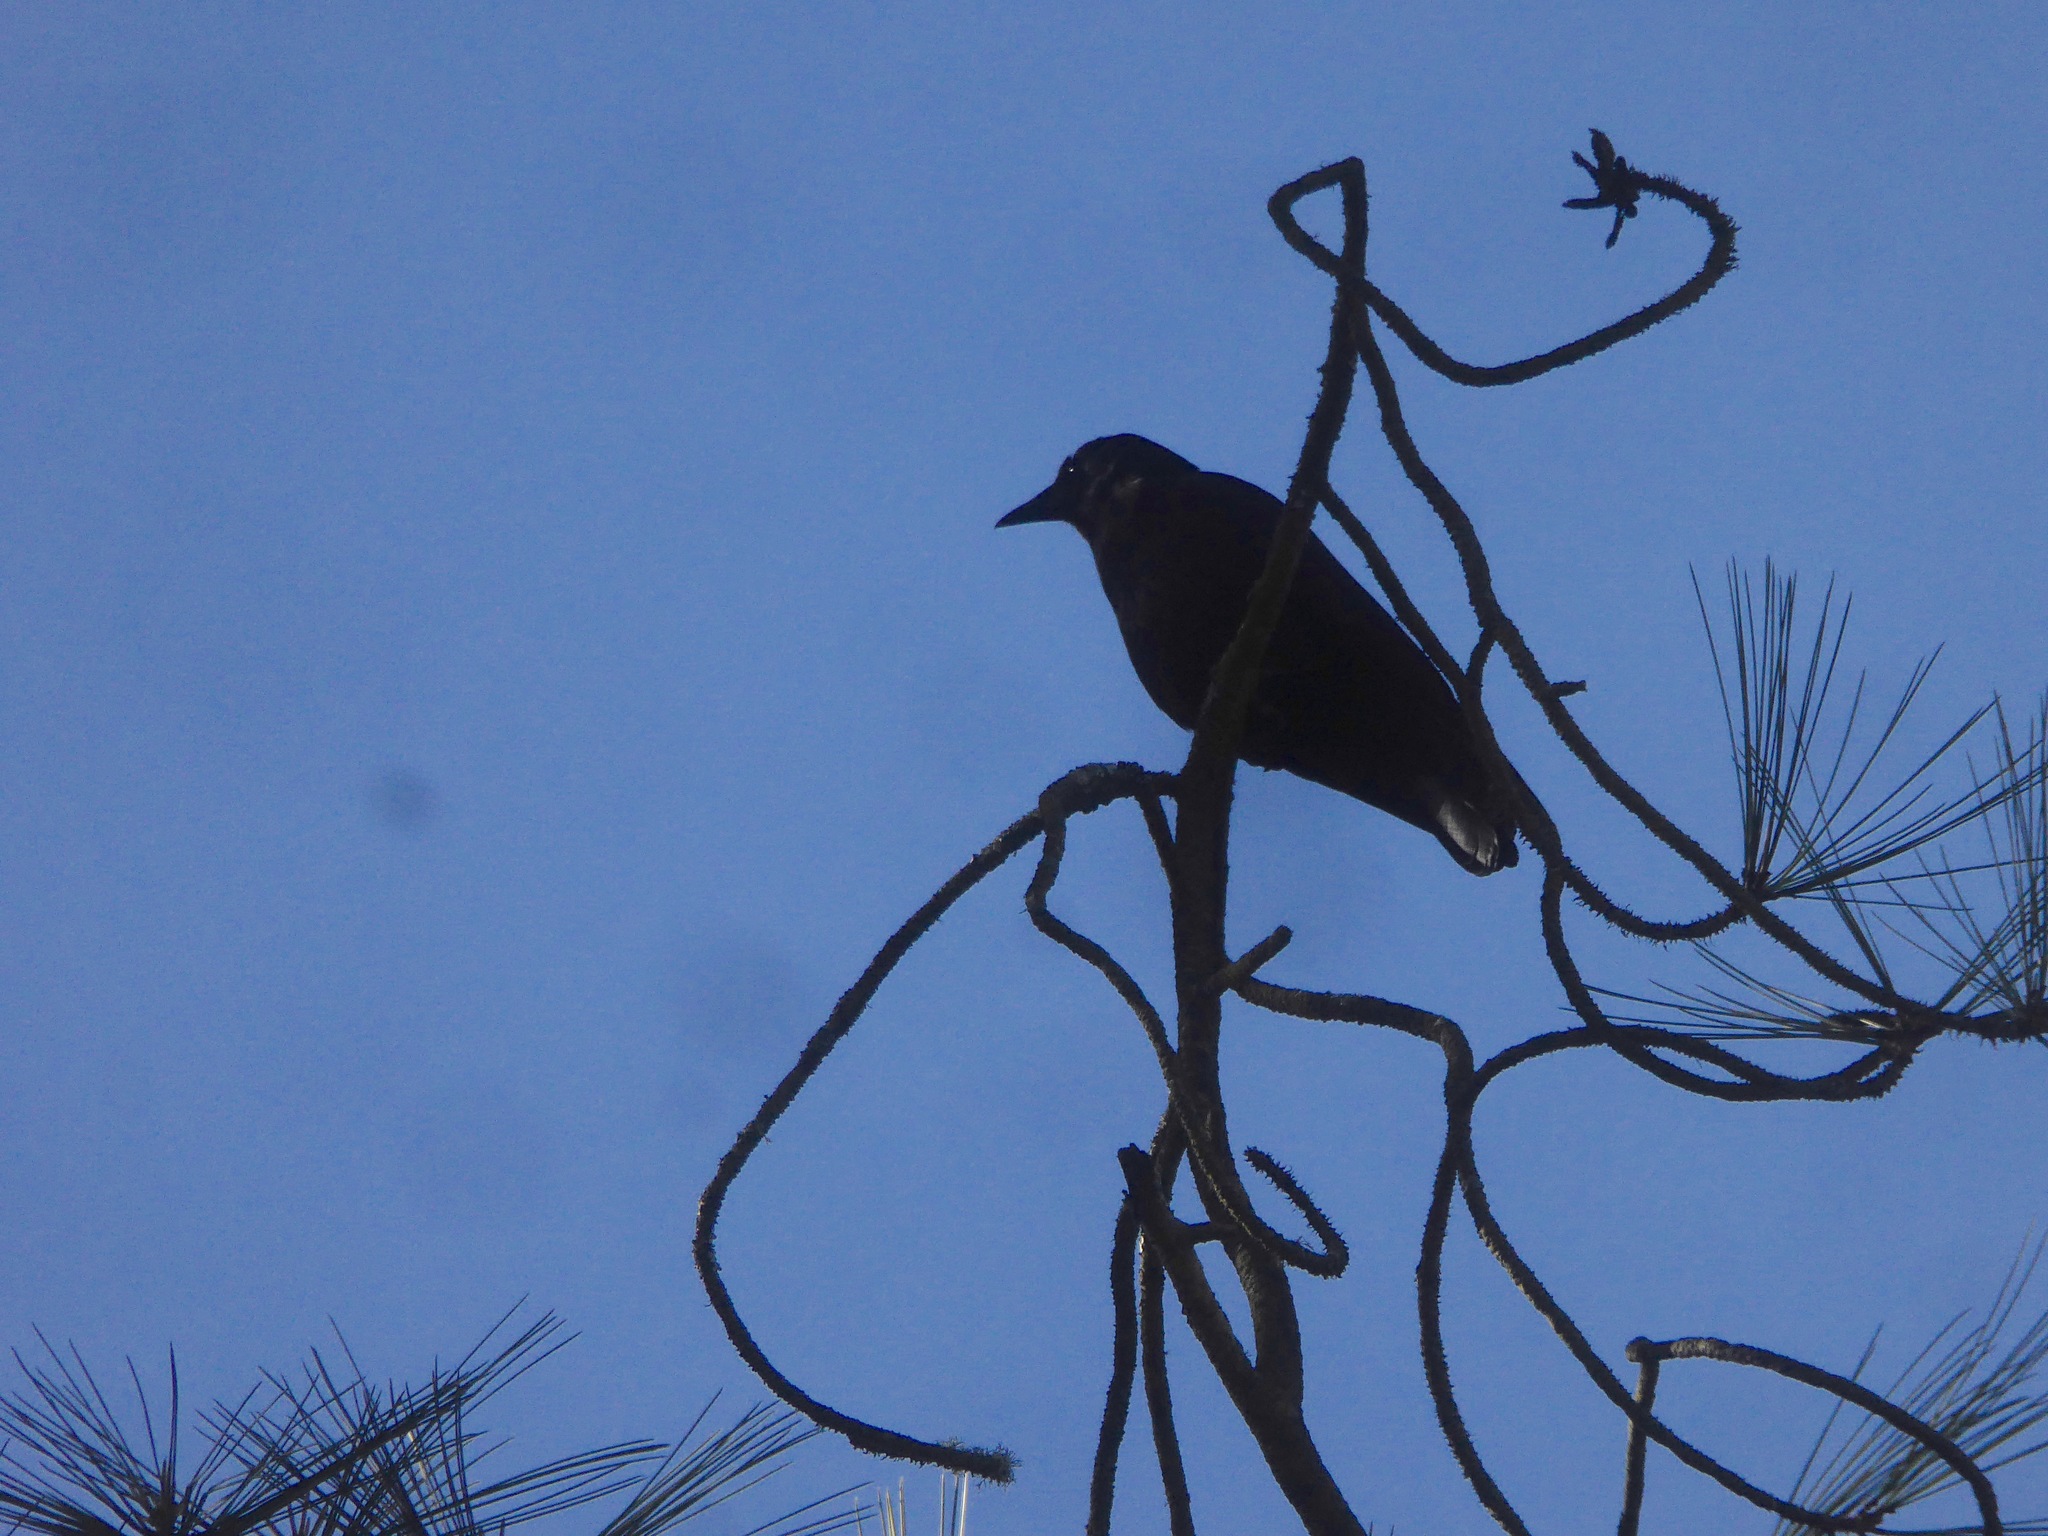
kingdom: Animalia
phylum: Chordata
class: Aves
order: Passeriformes
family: Corvidae
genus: Corvus
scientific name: Corvus brachyrhynchos
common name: American crow
